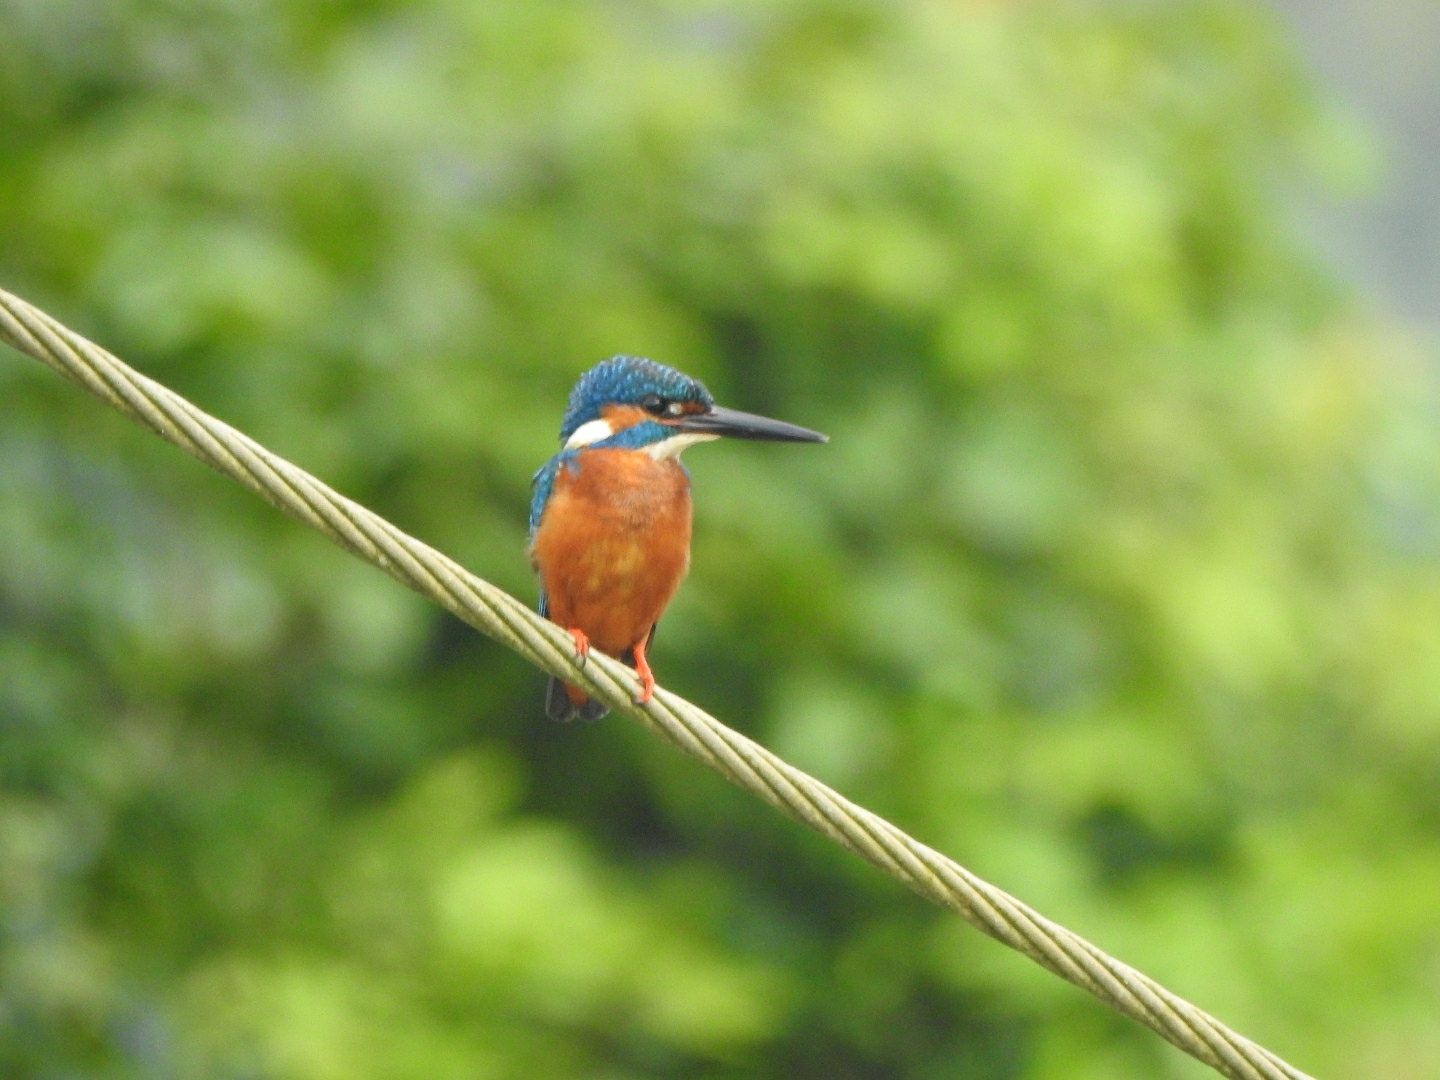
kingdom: Animalia
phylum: Chordata
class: Aves
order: Coraciiformes
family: Alcedinidae
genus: Alcedo
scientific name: Alcedo atthis
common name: Common kingfisher
